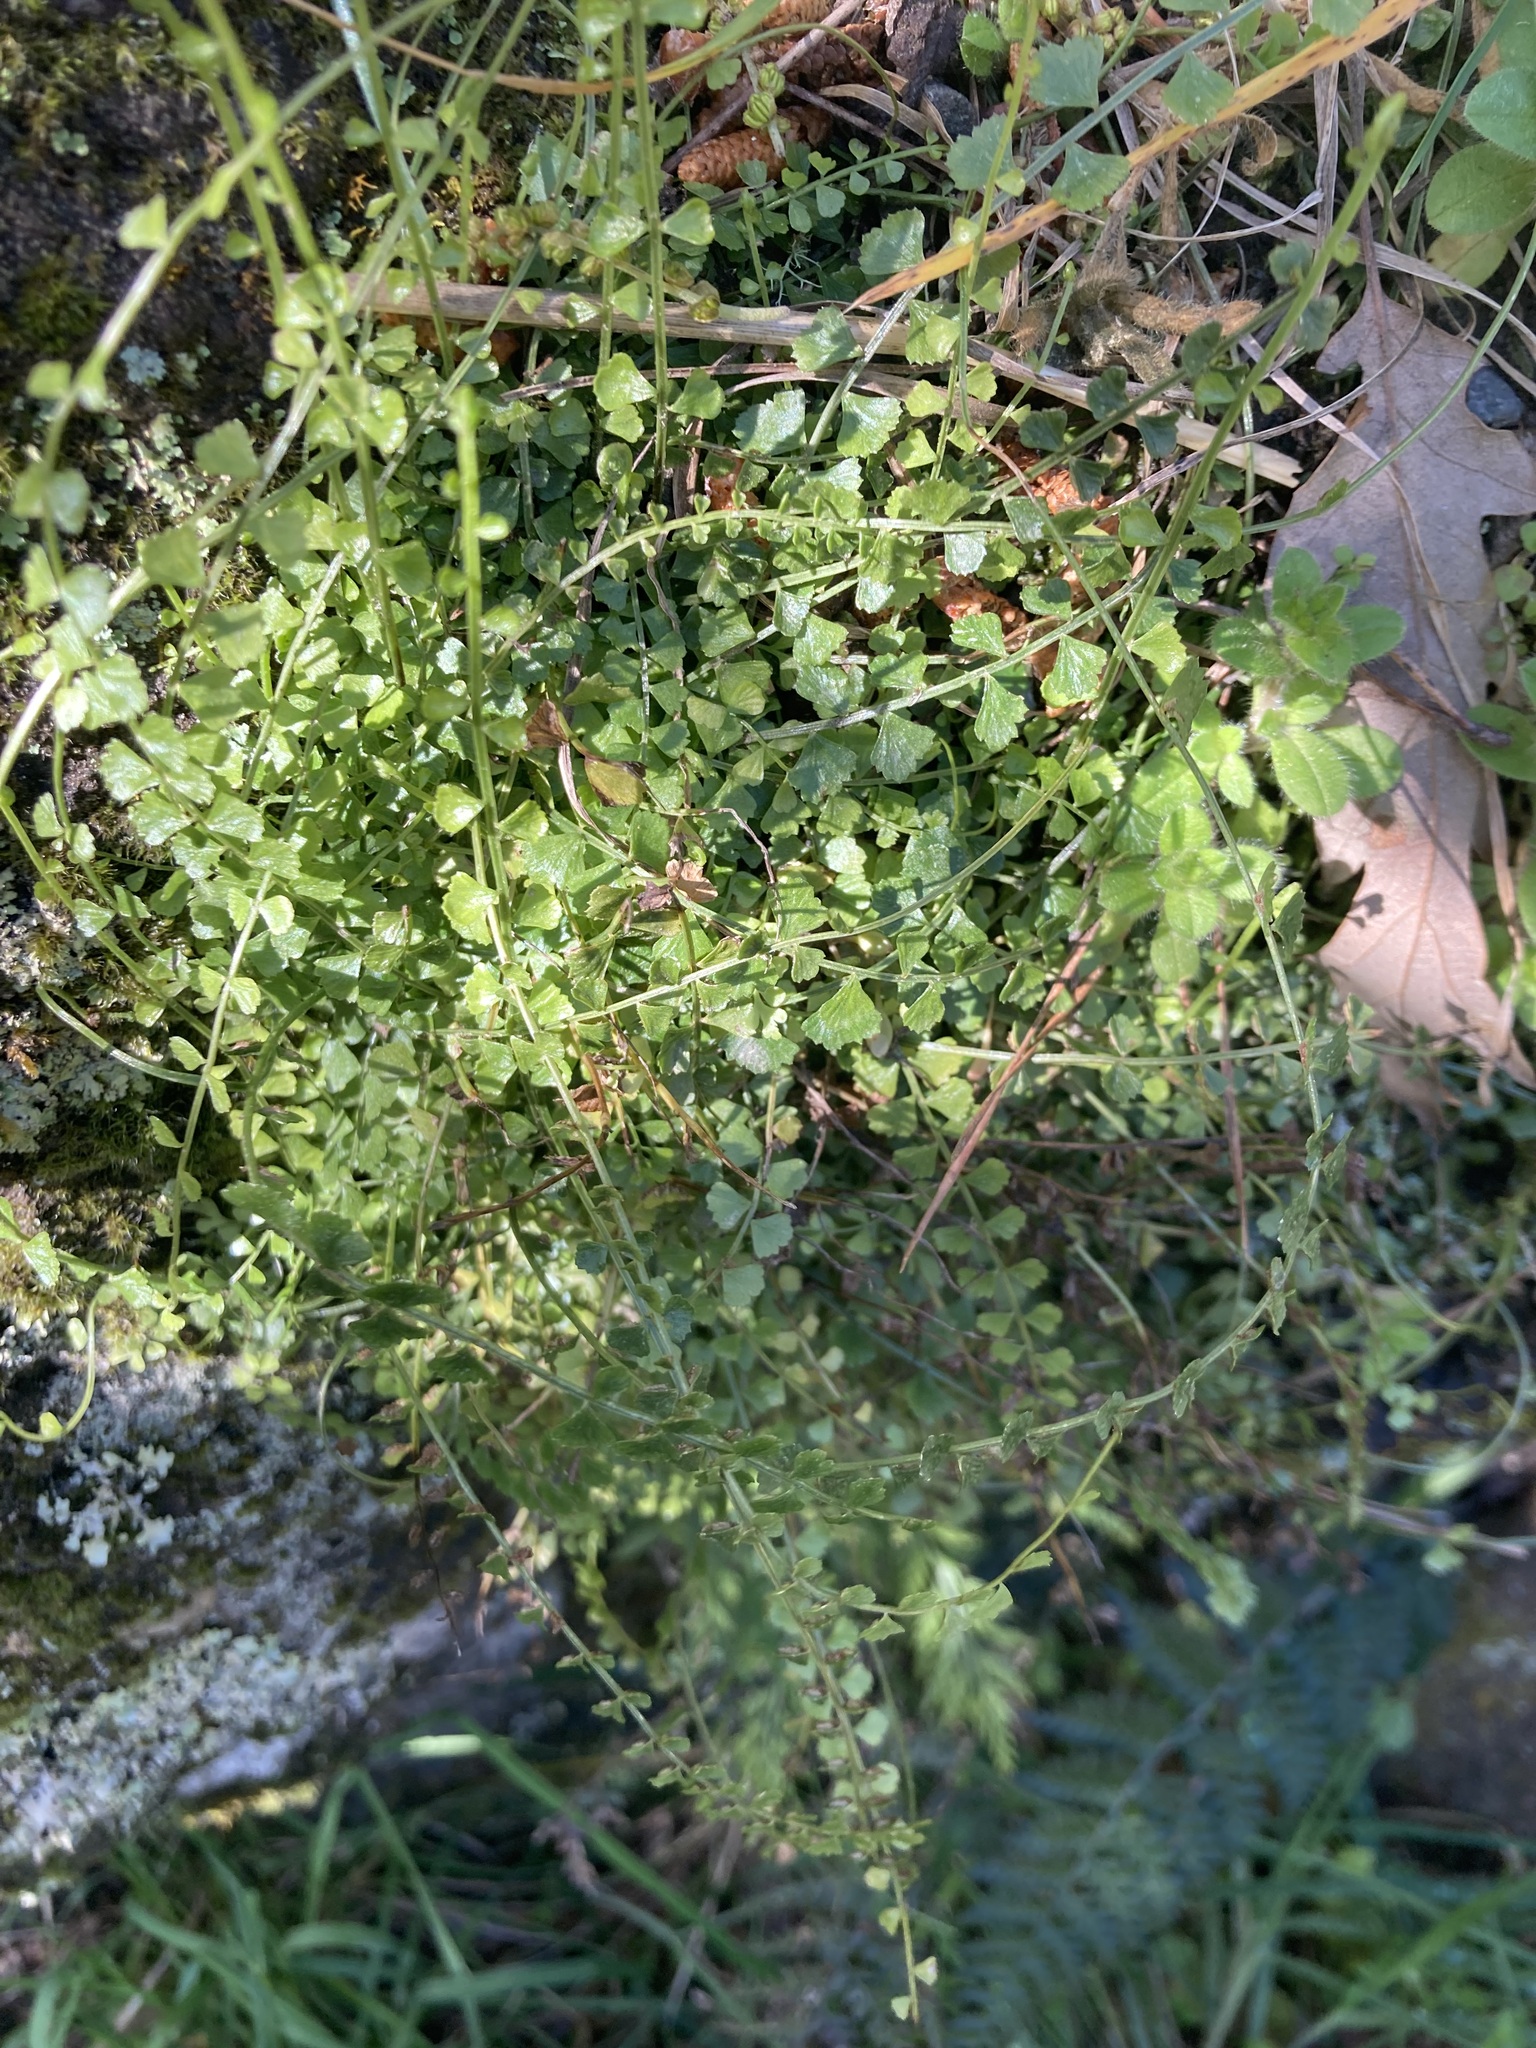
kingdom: Plantae
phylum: Tracheophyta
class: Polypodiopsida
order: Polypodiales
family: Aspleniaceae
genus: Asplenium
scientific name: Asplenium flabellifolium
